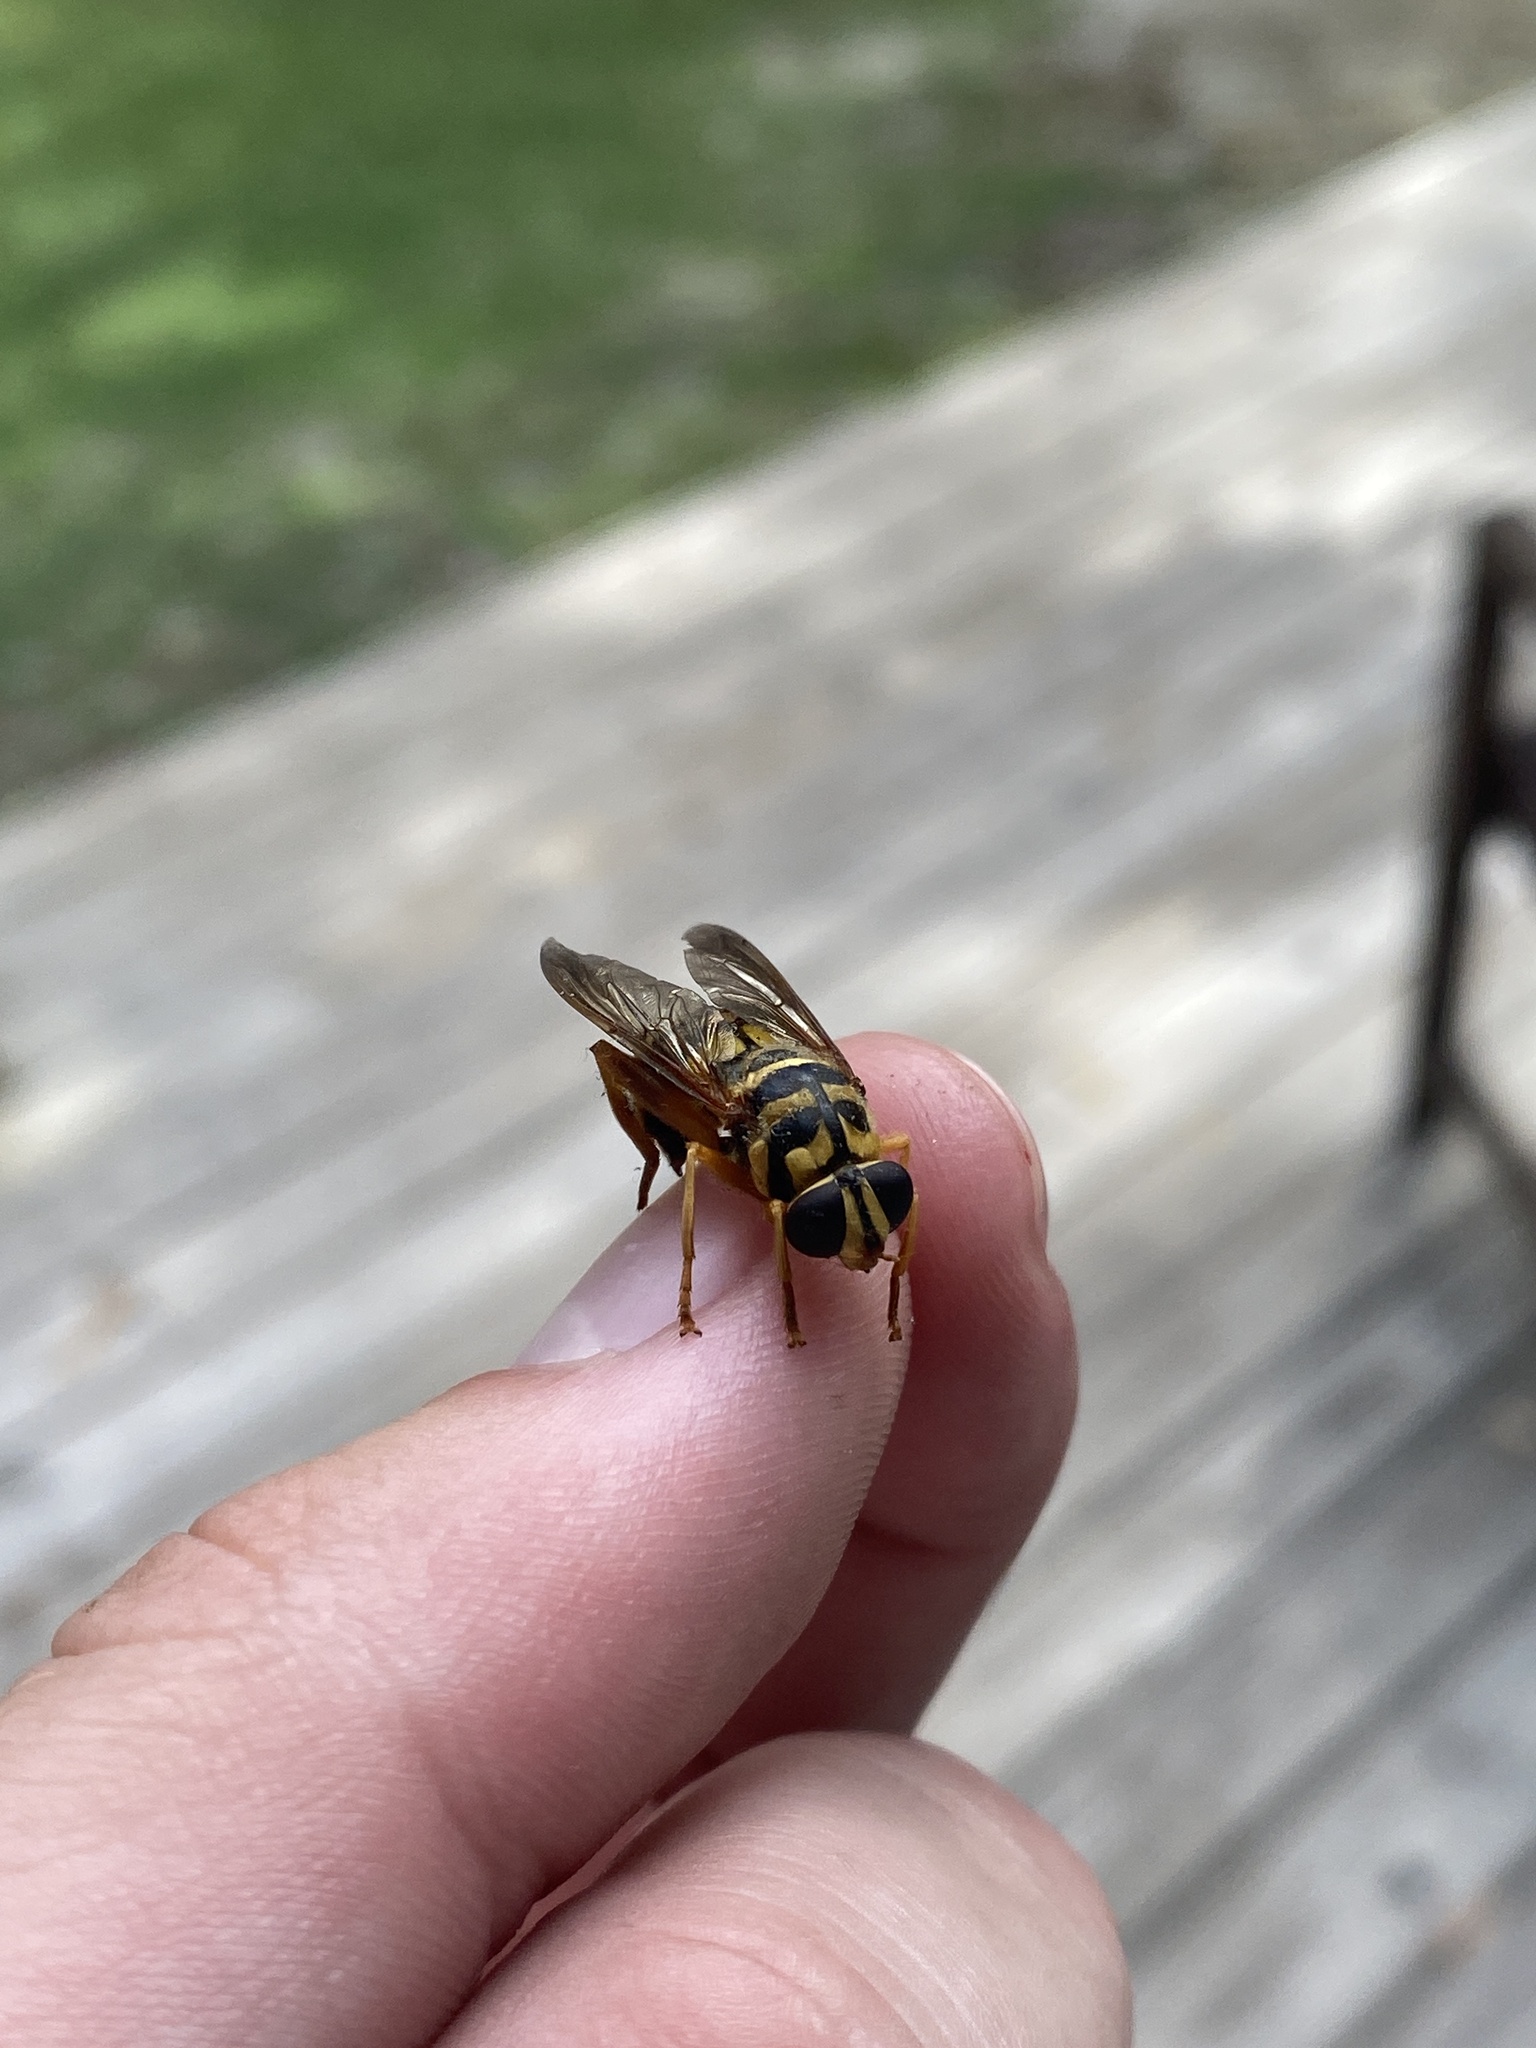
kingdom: Animalia
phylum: Arthropoda
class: Insecta
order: Diptera
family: Syrphidae
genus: Milesia
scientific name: Milesia virginiensis
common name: Virginia giant
